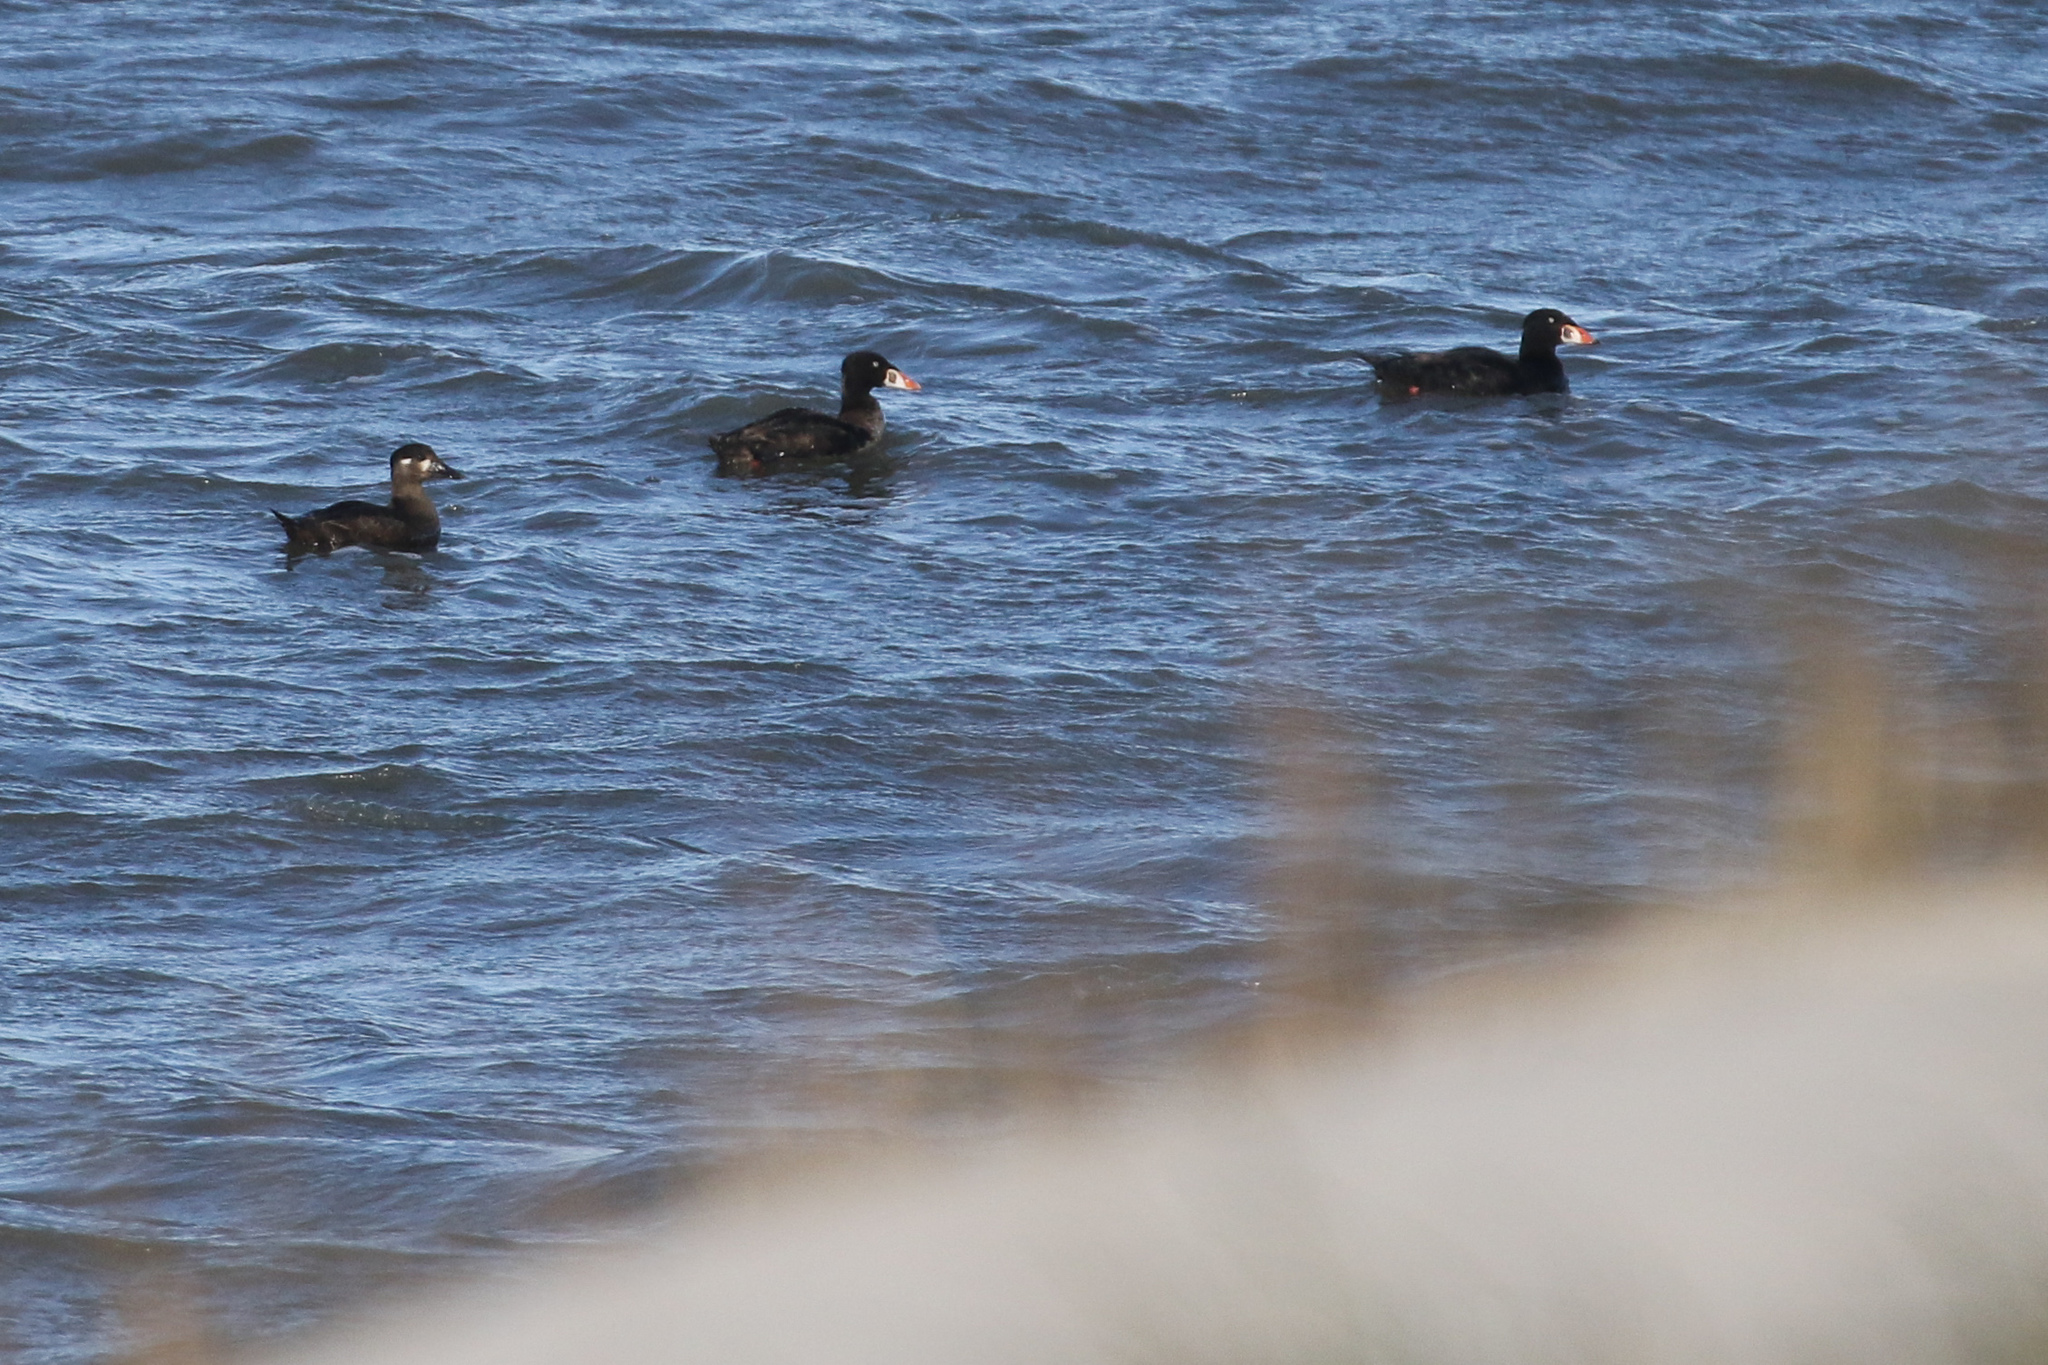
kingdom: Animalia
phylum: Chordata
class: Aves
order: Anseriformes
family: Anatidae
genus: Melanitta
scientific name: Melanitta perspicillata
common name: Surf scoter
